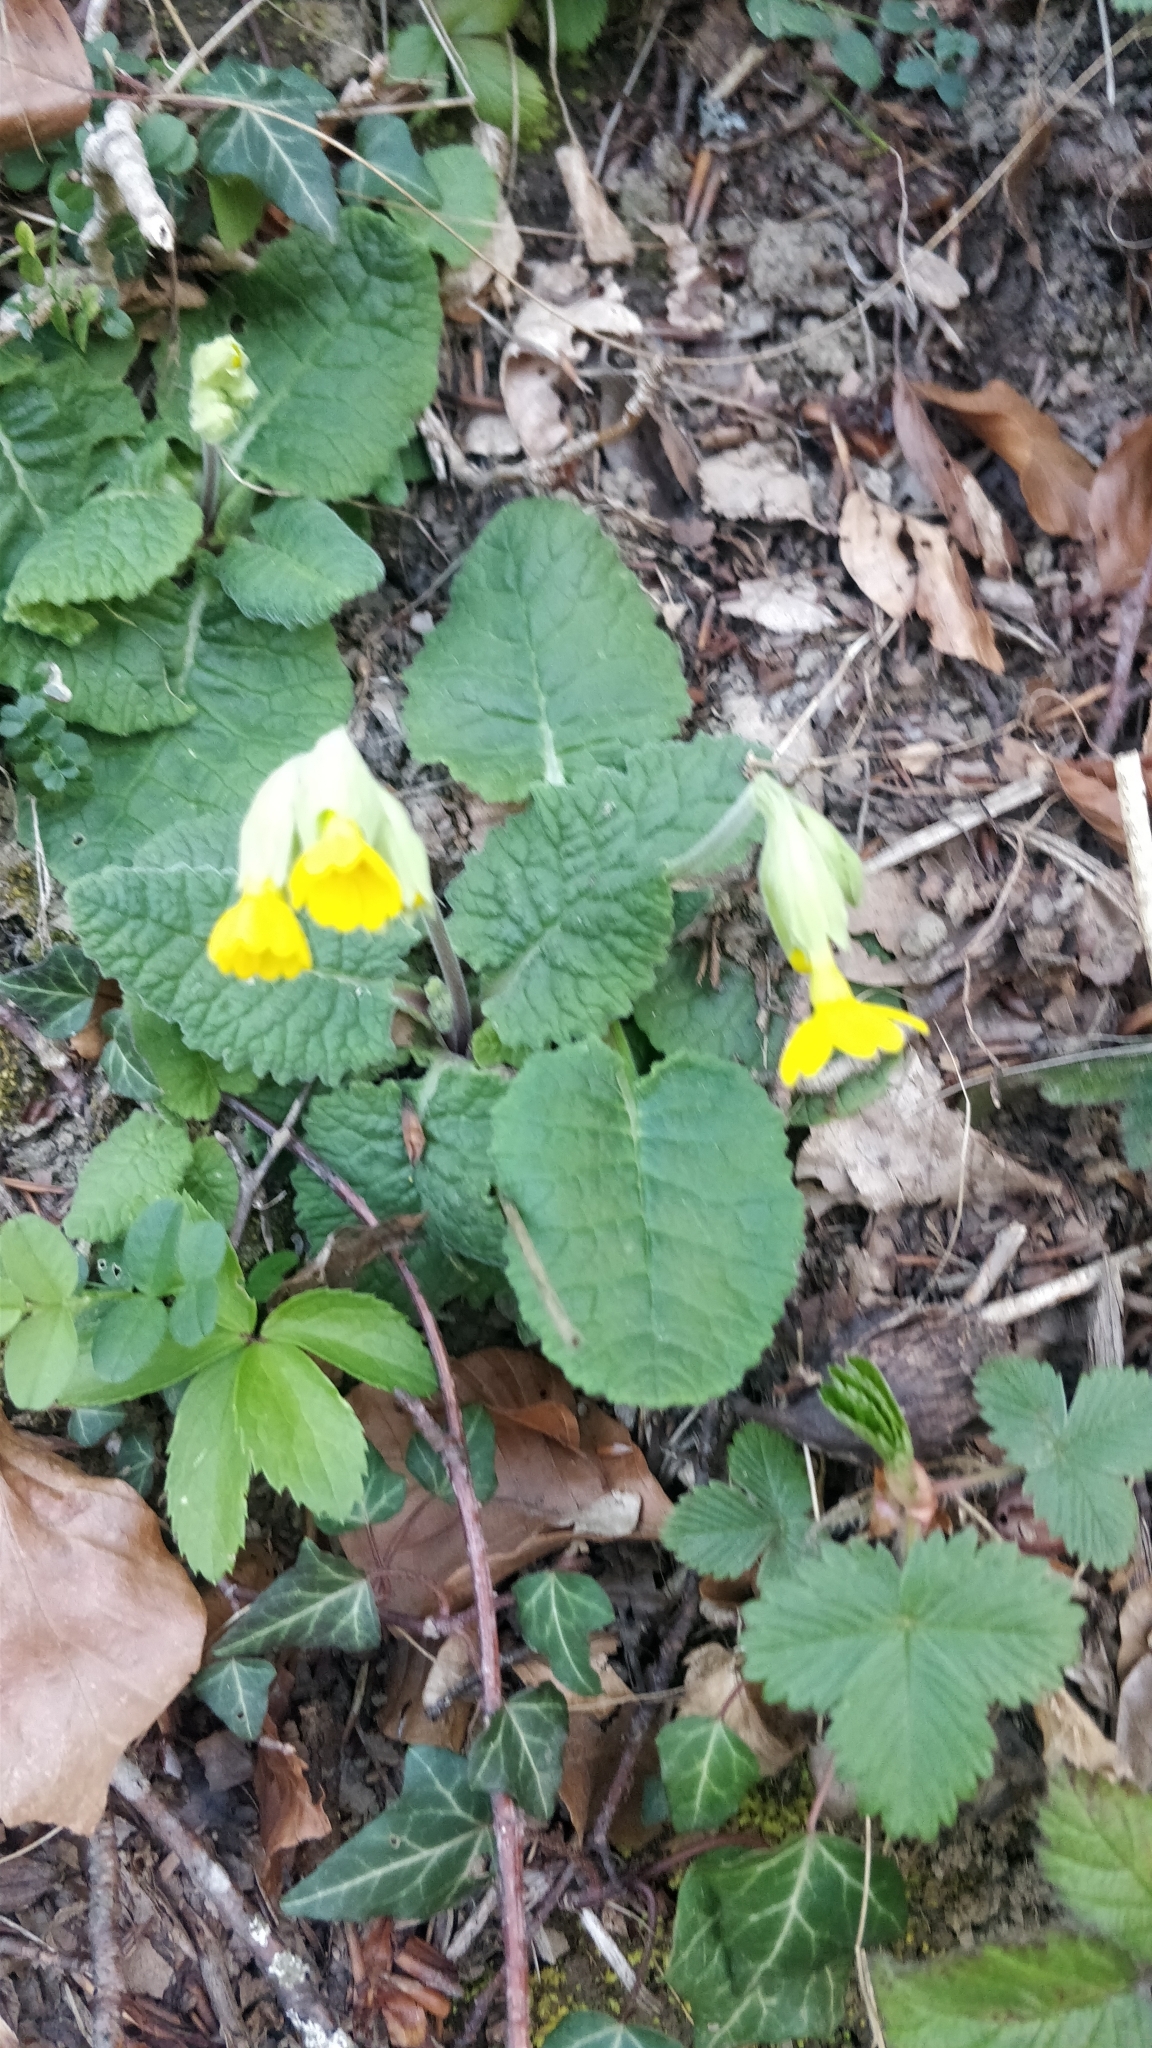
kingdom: Plantae
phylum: Tracheophyta
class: Magnoliopsida
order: Ericales
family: Primulaceae
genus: Primula
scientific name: Primula veris
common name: Cowslip
